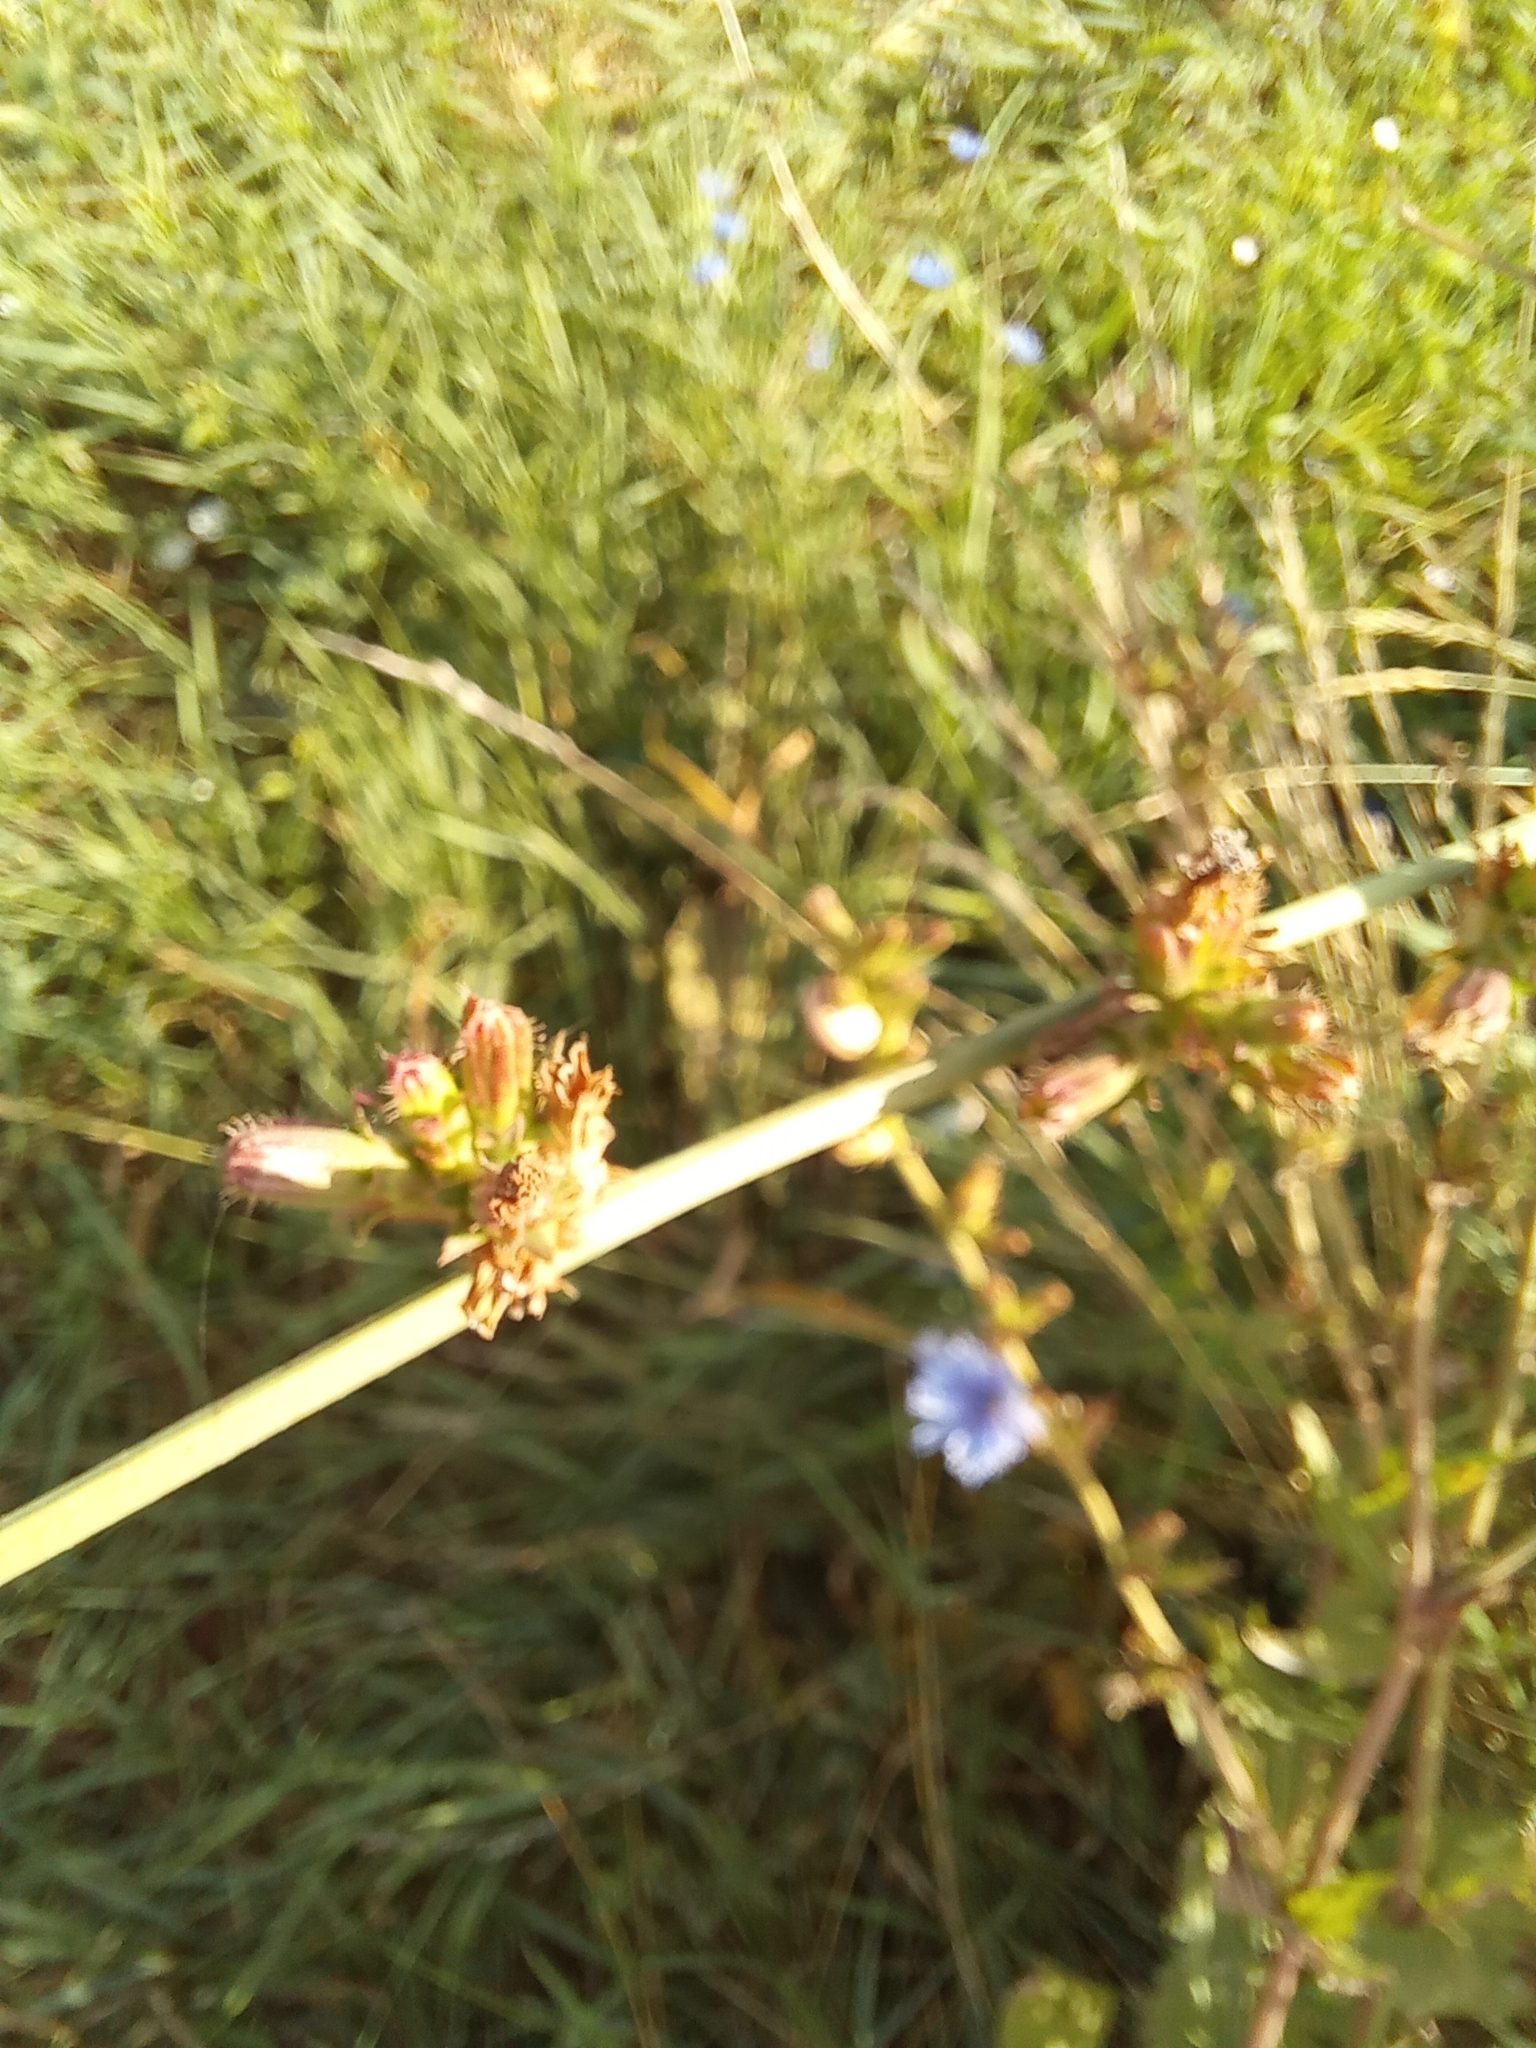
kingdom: Plantae
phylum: Tracheophyta
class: Magnoliopsida
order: Asterales
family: Asteraceae
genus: Cichorium
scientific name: Cichorium intybus
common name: Chicory
